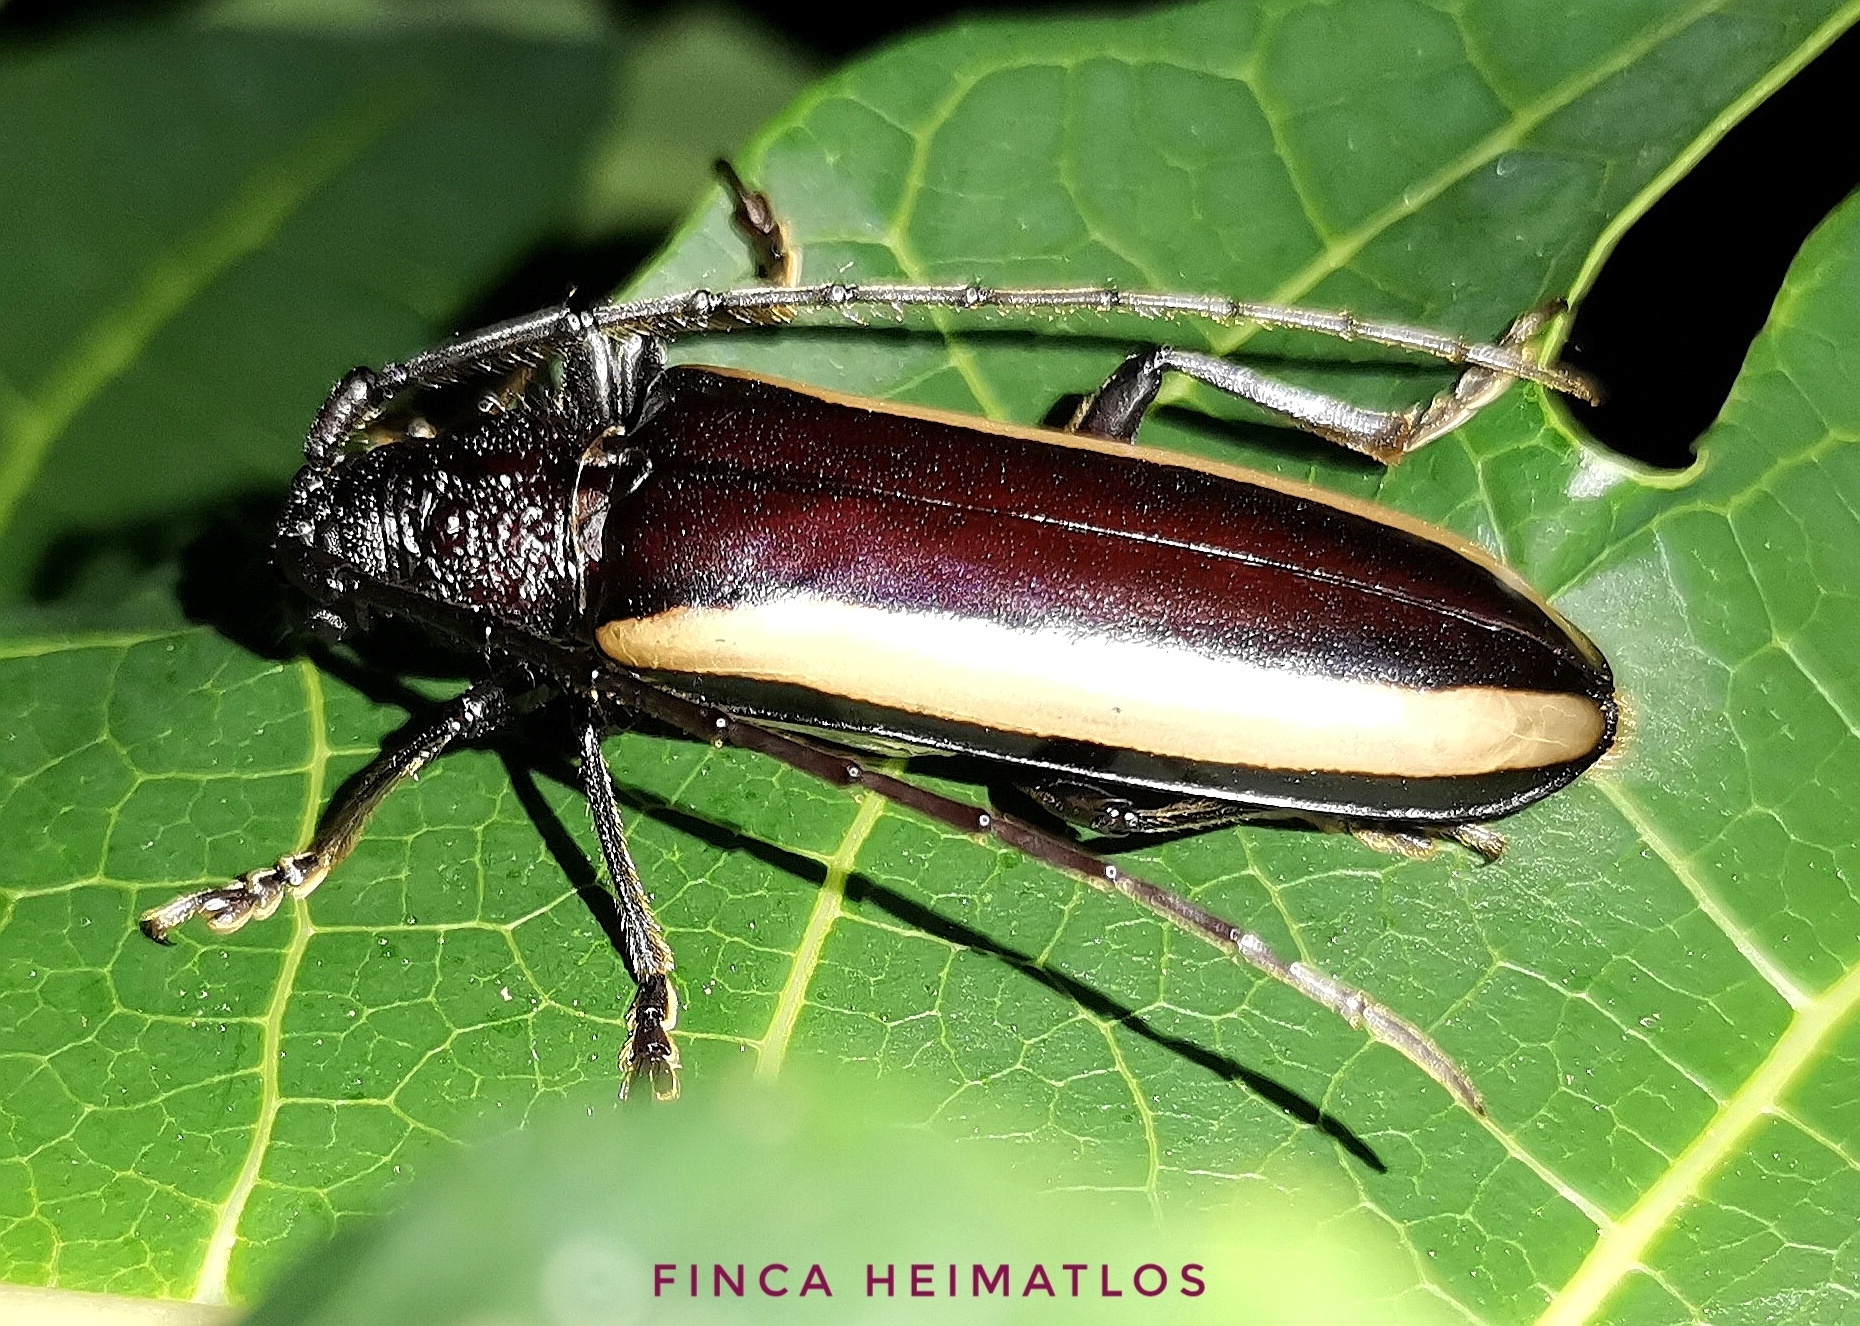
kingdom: Animalia
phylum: Arthropoda
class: Insecta
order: Coleoptera
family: Cerambycidae
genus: Poeciloxestia
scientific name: Poeciloxestia lateralis
